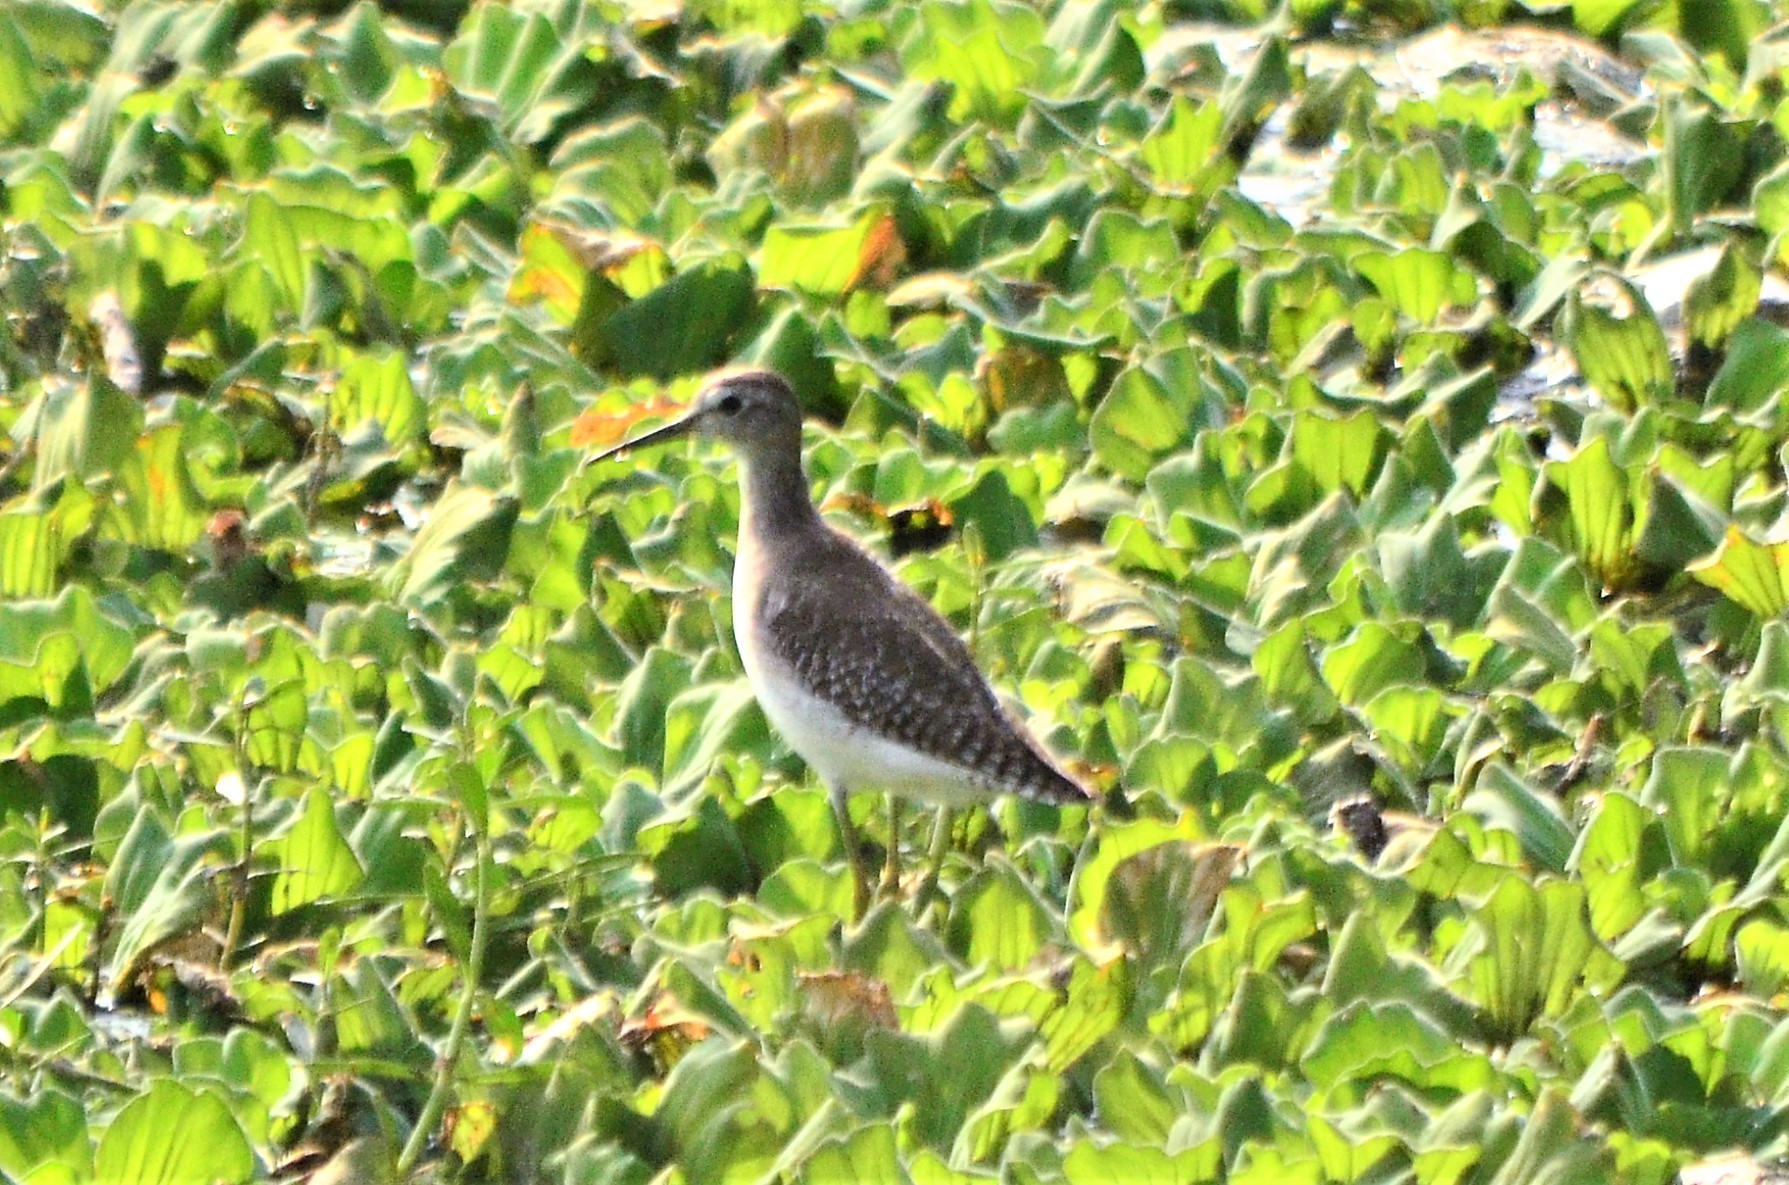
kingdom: Animalia
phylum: Chordata
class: Aves
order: Charadriiformes
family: Scolopacidae
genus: Tringa
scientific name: Tringa glareola
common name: Wood sandpiper
